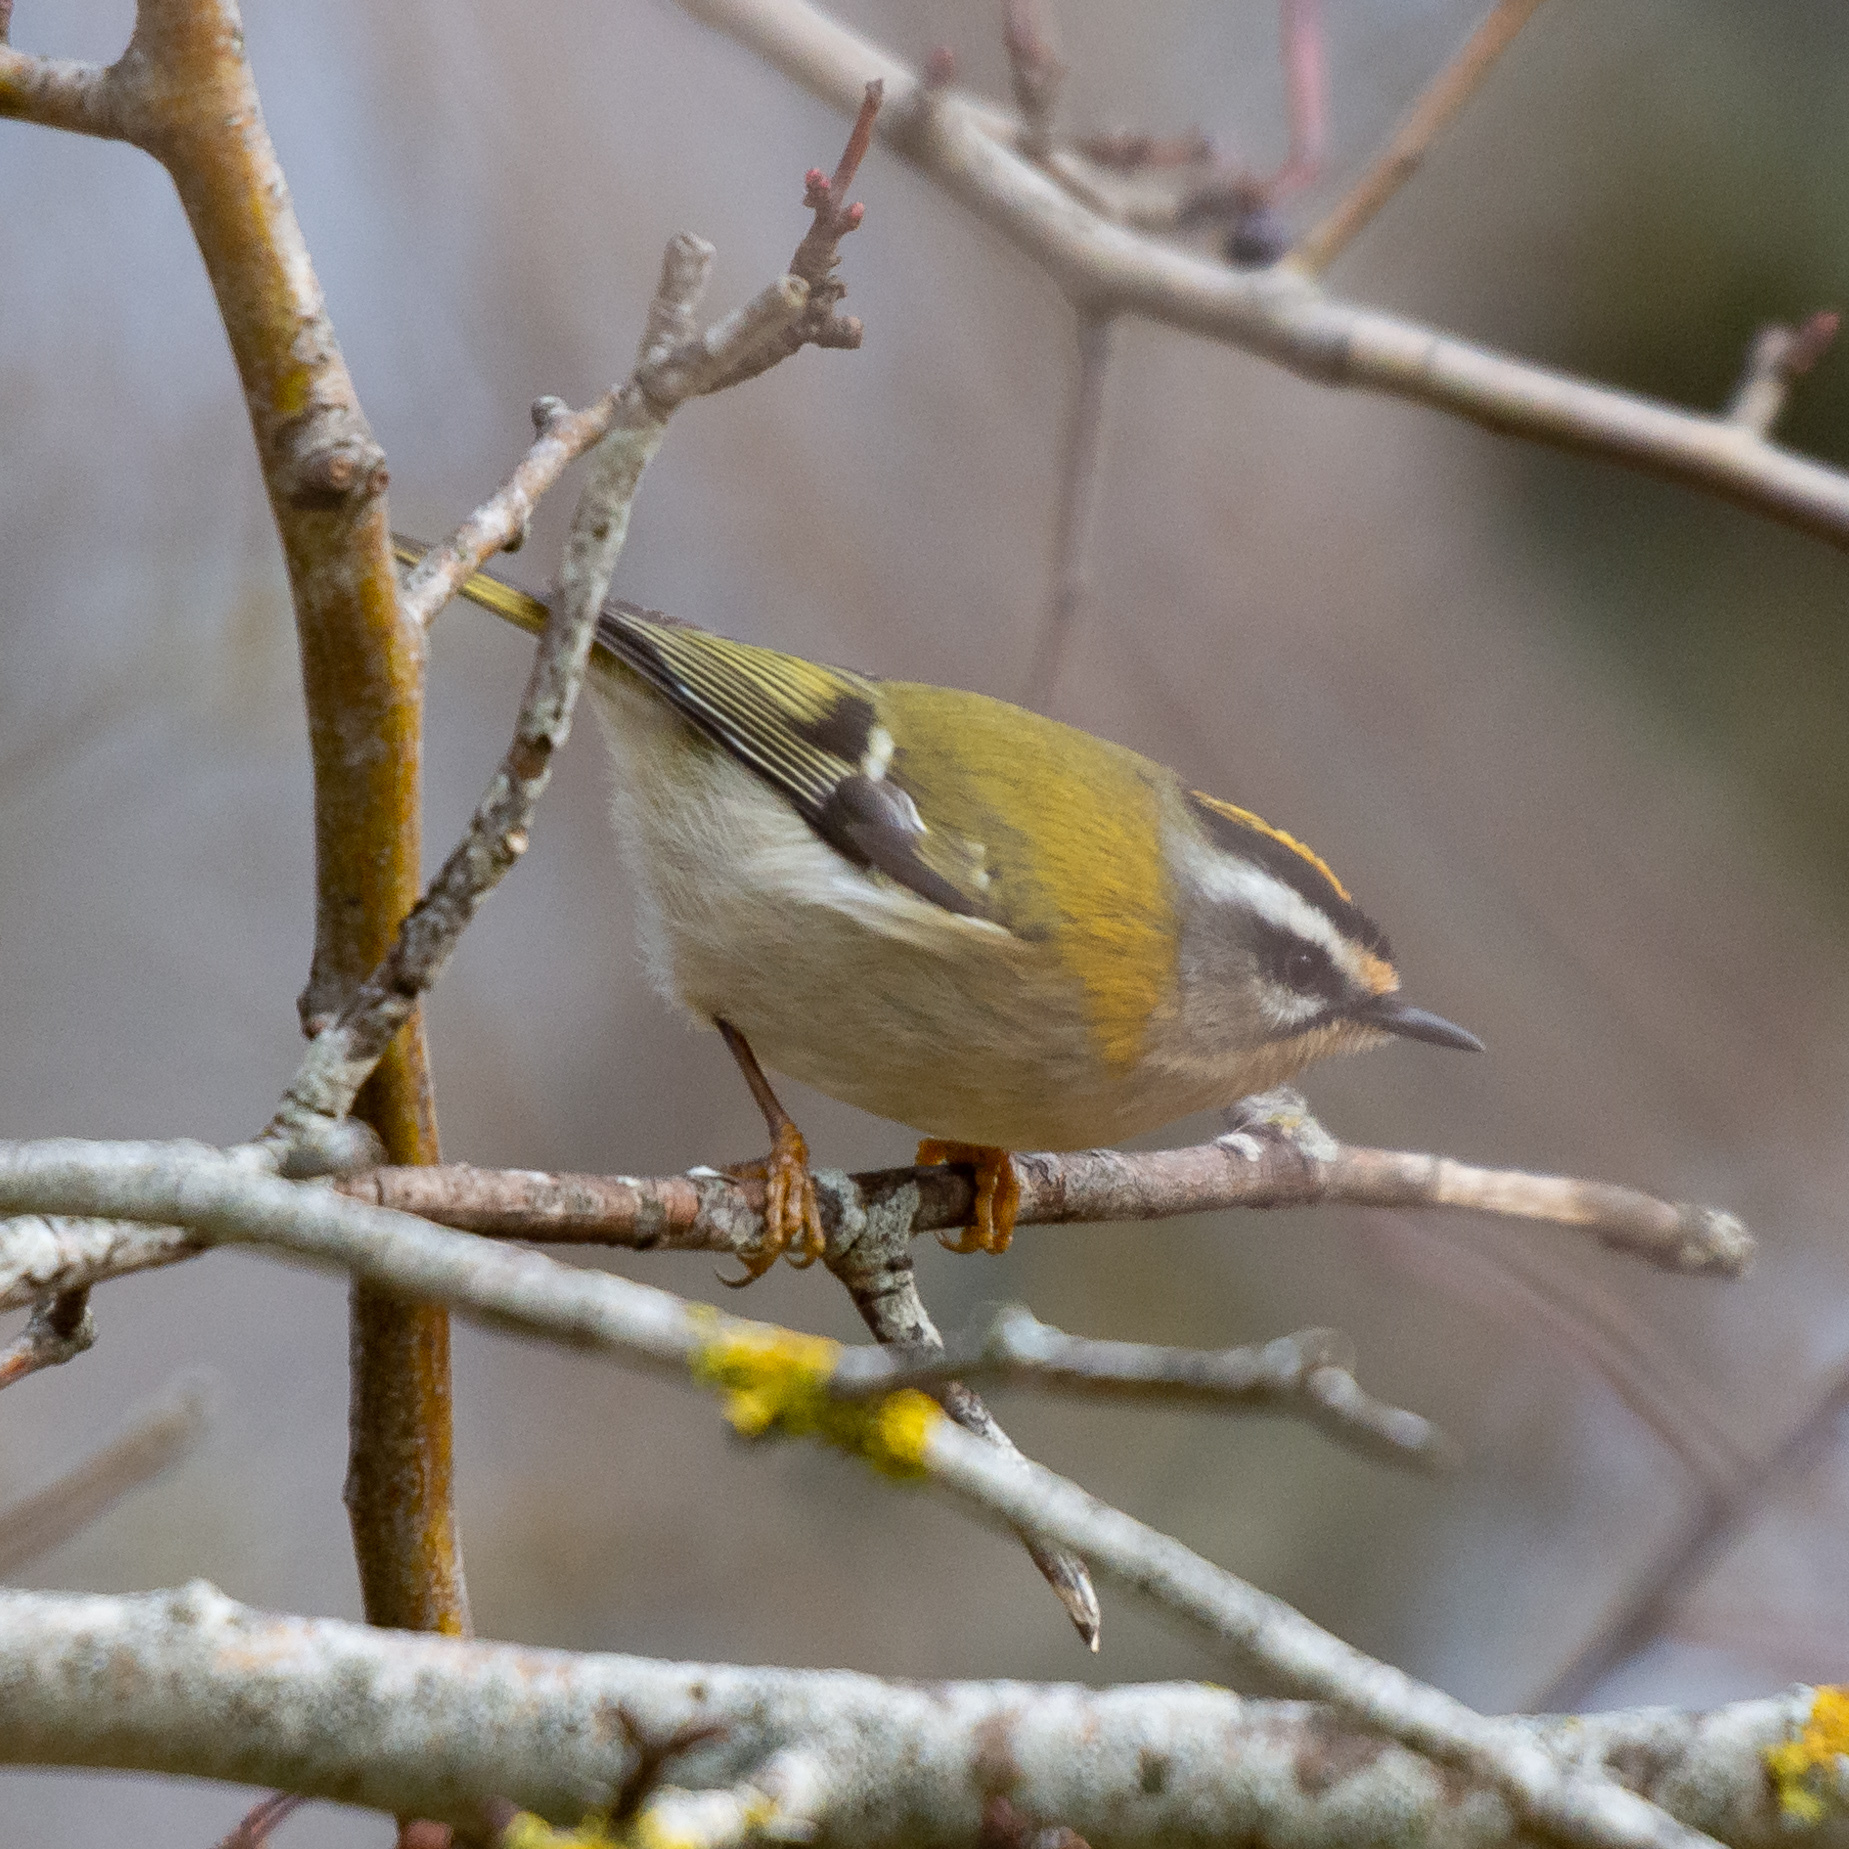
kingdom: Animalia
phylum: Chordata
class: Aves
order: Passeriformes
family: Regulidae
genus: Regulus
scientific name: Regulus ignicapilla
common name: Firecrest
